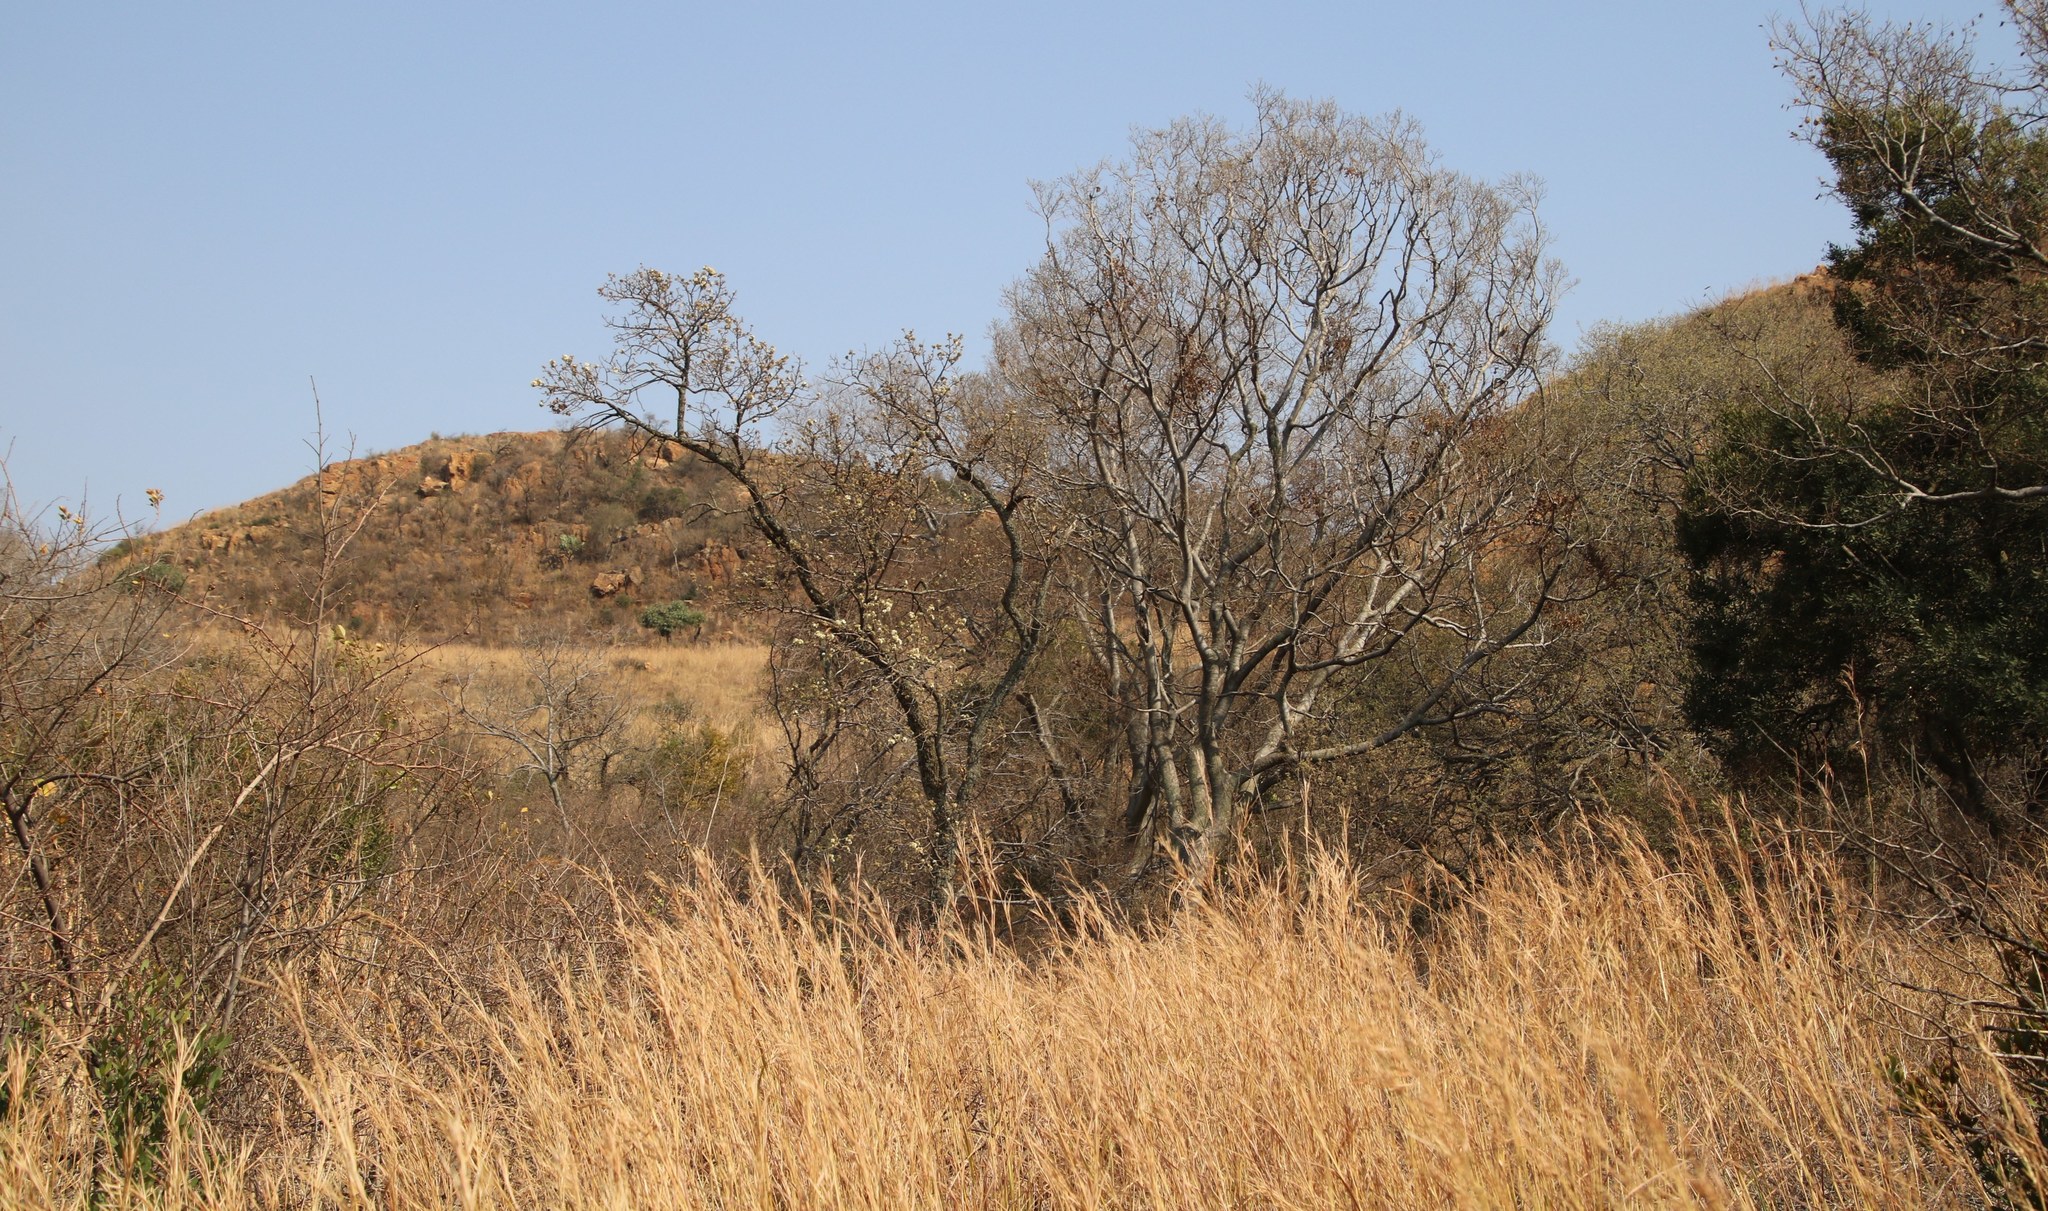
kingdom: Plantae
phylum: Tracheophyta
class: Magnoliopsida
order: Malvales
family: Malvaceae
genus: Dombeya
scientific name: Dombeya rotundifolia
